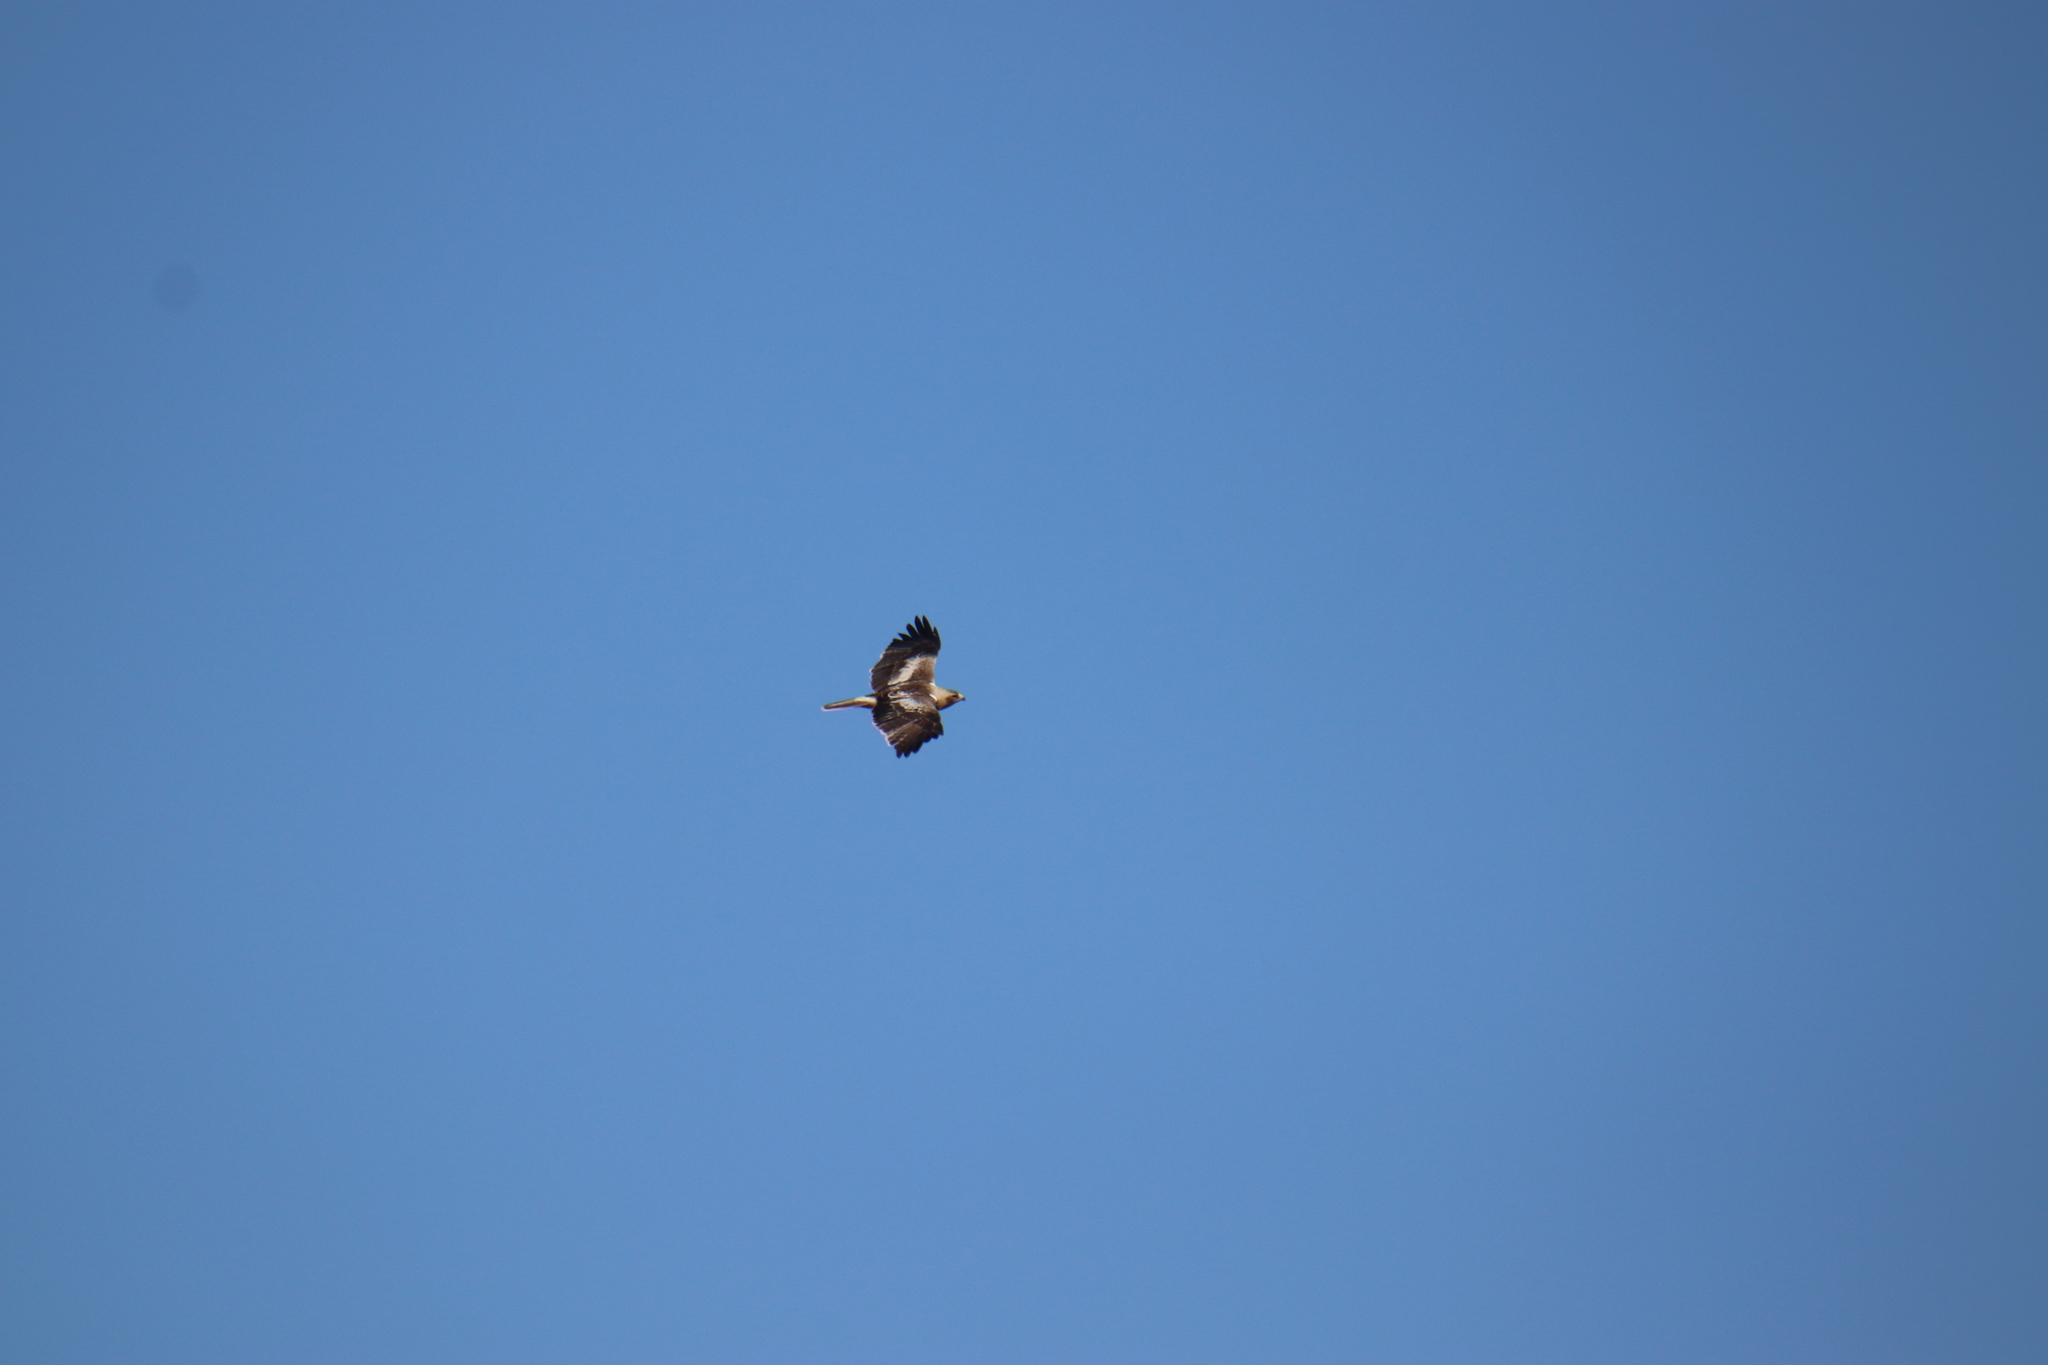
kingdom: Animalia
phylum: Chordata
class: Aves
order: Accipitriformes
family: Accipitridae
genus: Hieraaetus
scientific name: Hieraaetus pennatus
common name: Booted eagle
